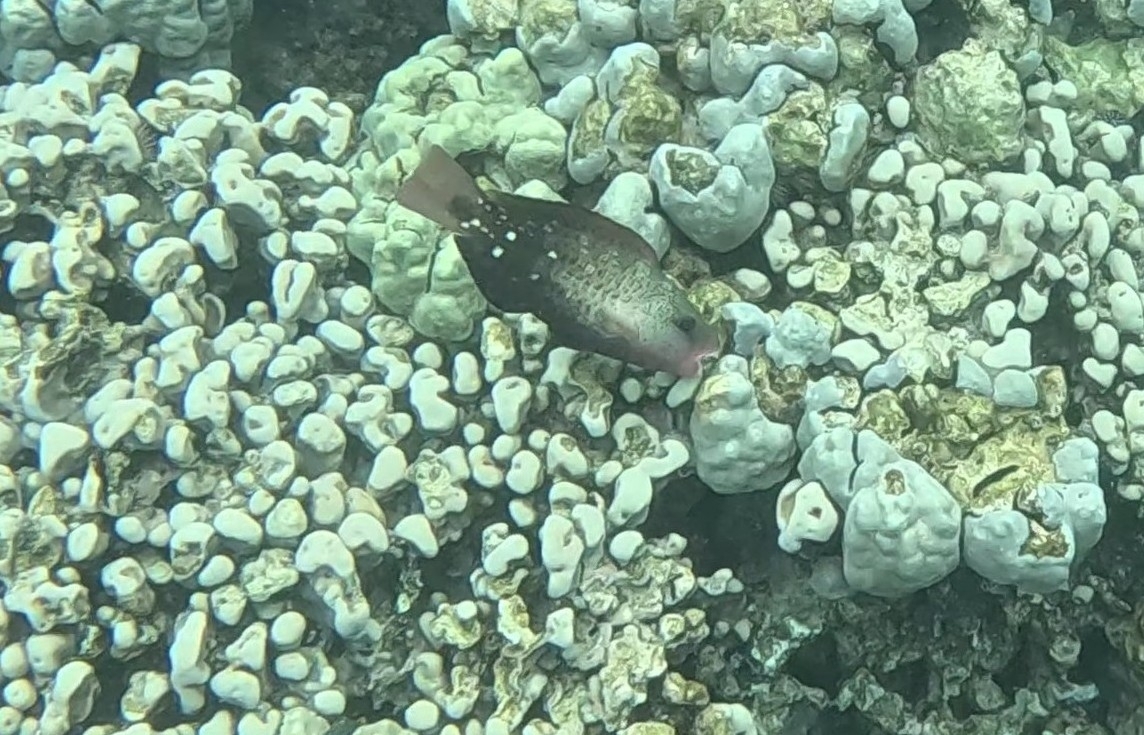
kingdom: Animalia
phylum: Chordata
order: Perciformes
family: Scaridae
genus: Chlorurus
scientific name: Chlorurus spilurus
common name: Bullethead parrotfish
